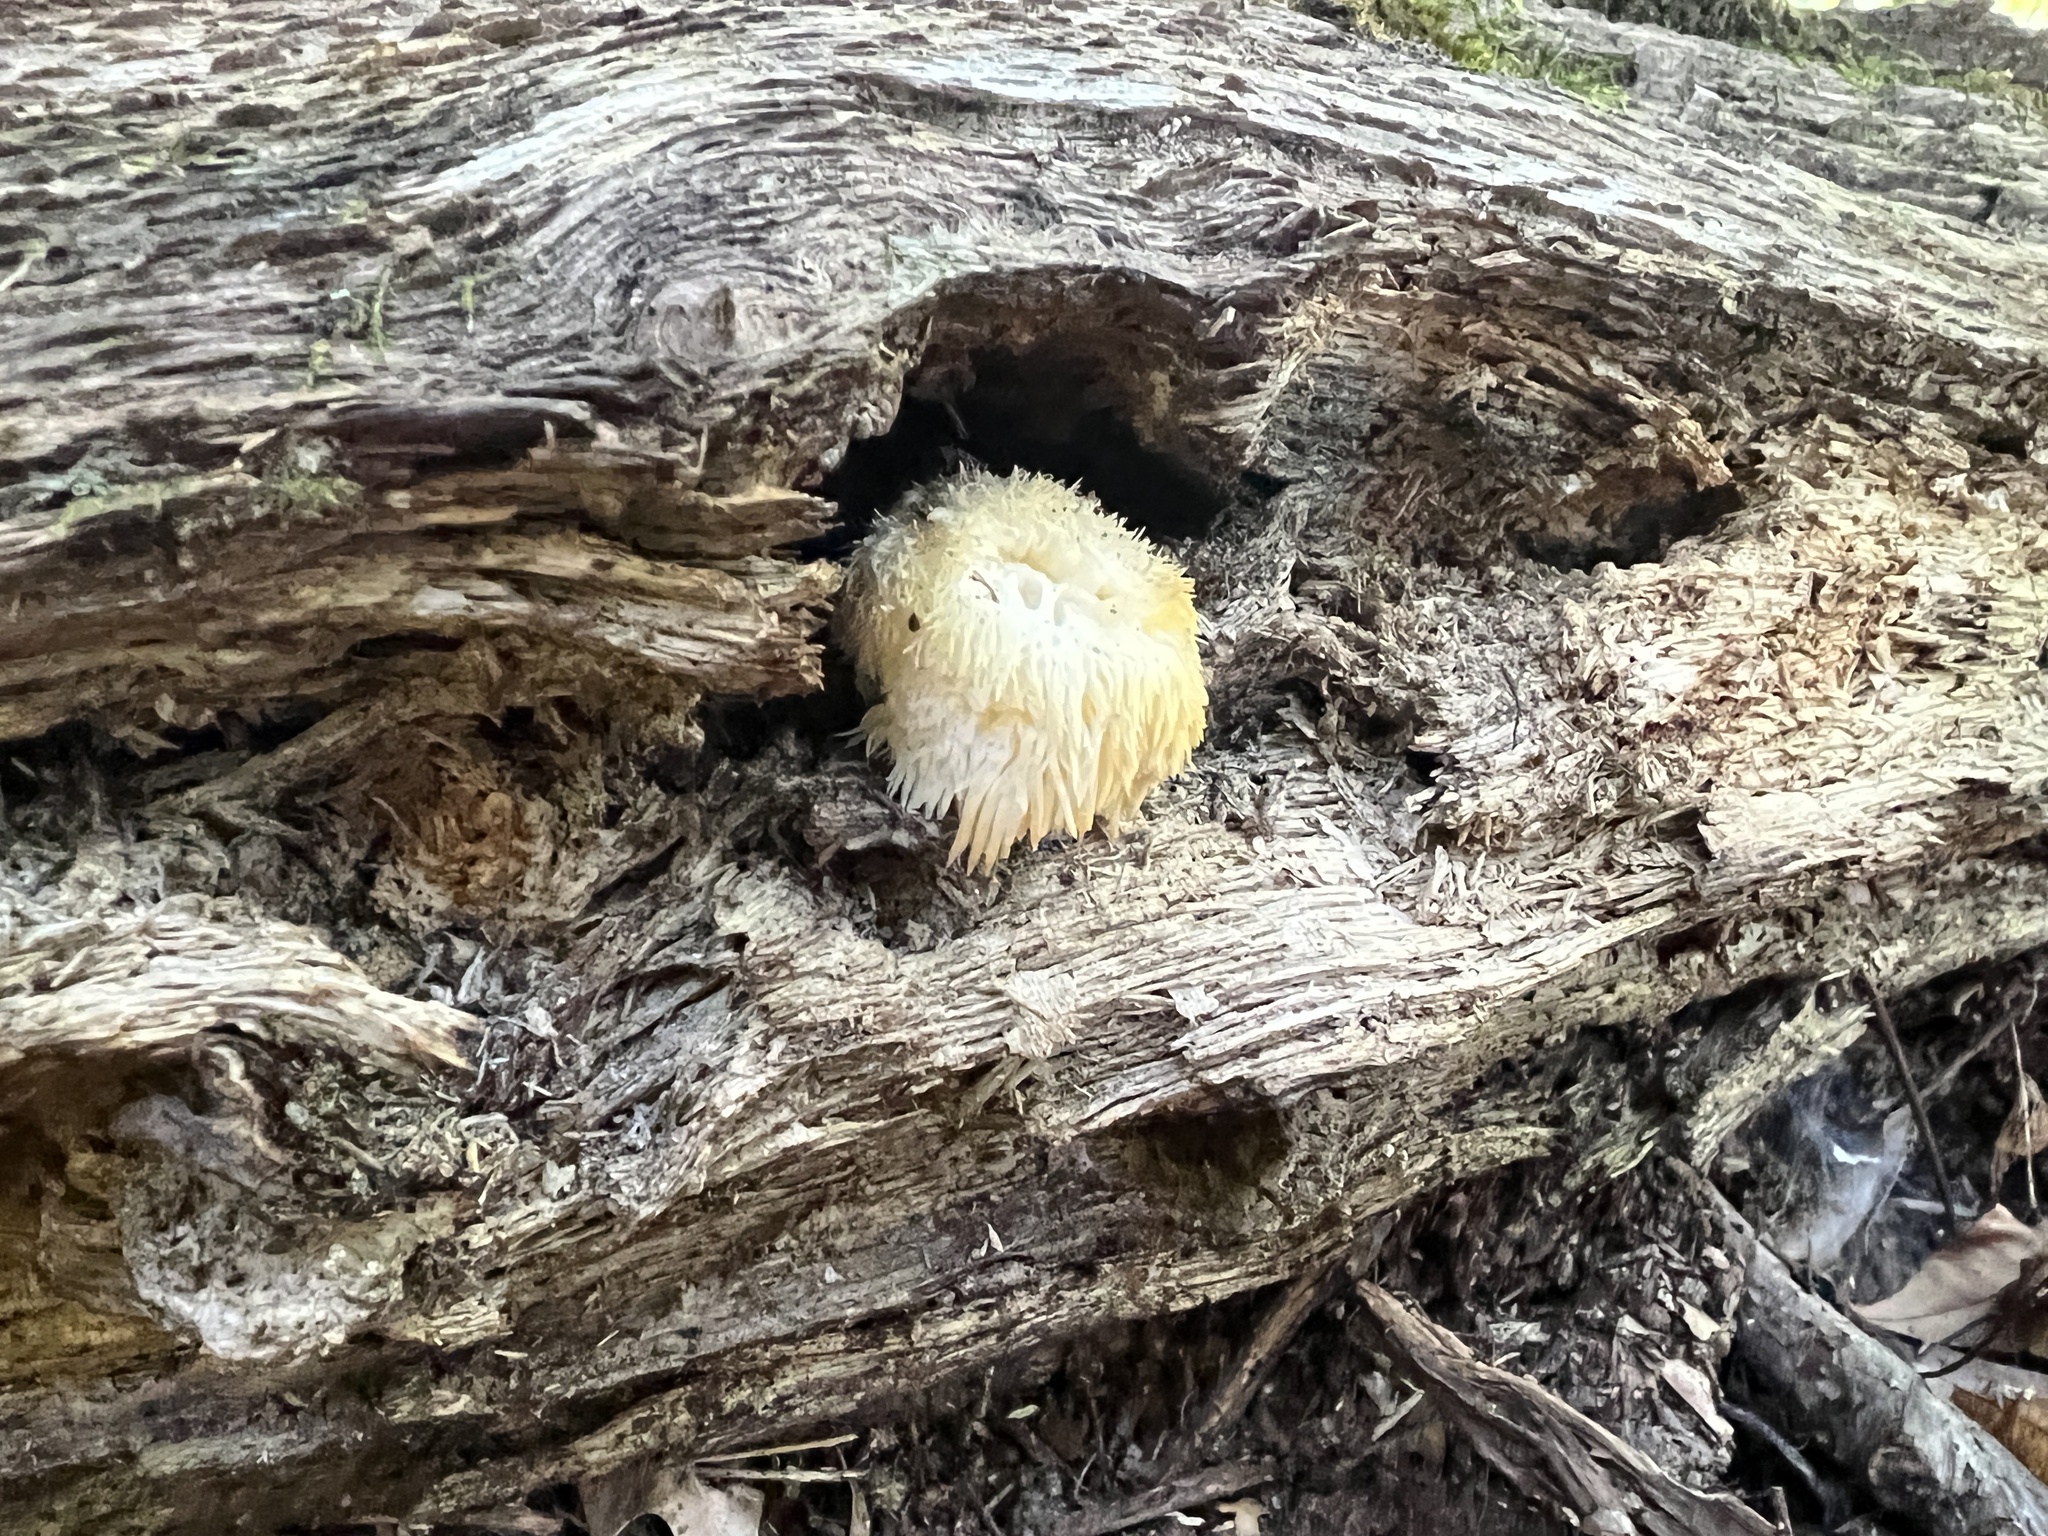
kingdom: Fungi
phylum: Basidiomycota
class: Agaricomycetes
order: Russulales
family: Hericiaceae
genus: Hericium
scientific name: Hericium erinaceus
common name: Bearded tooth
